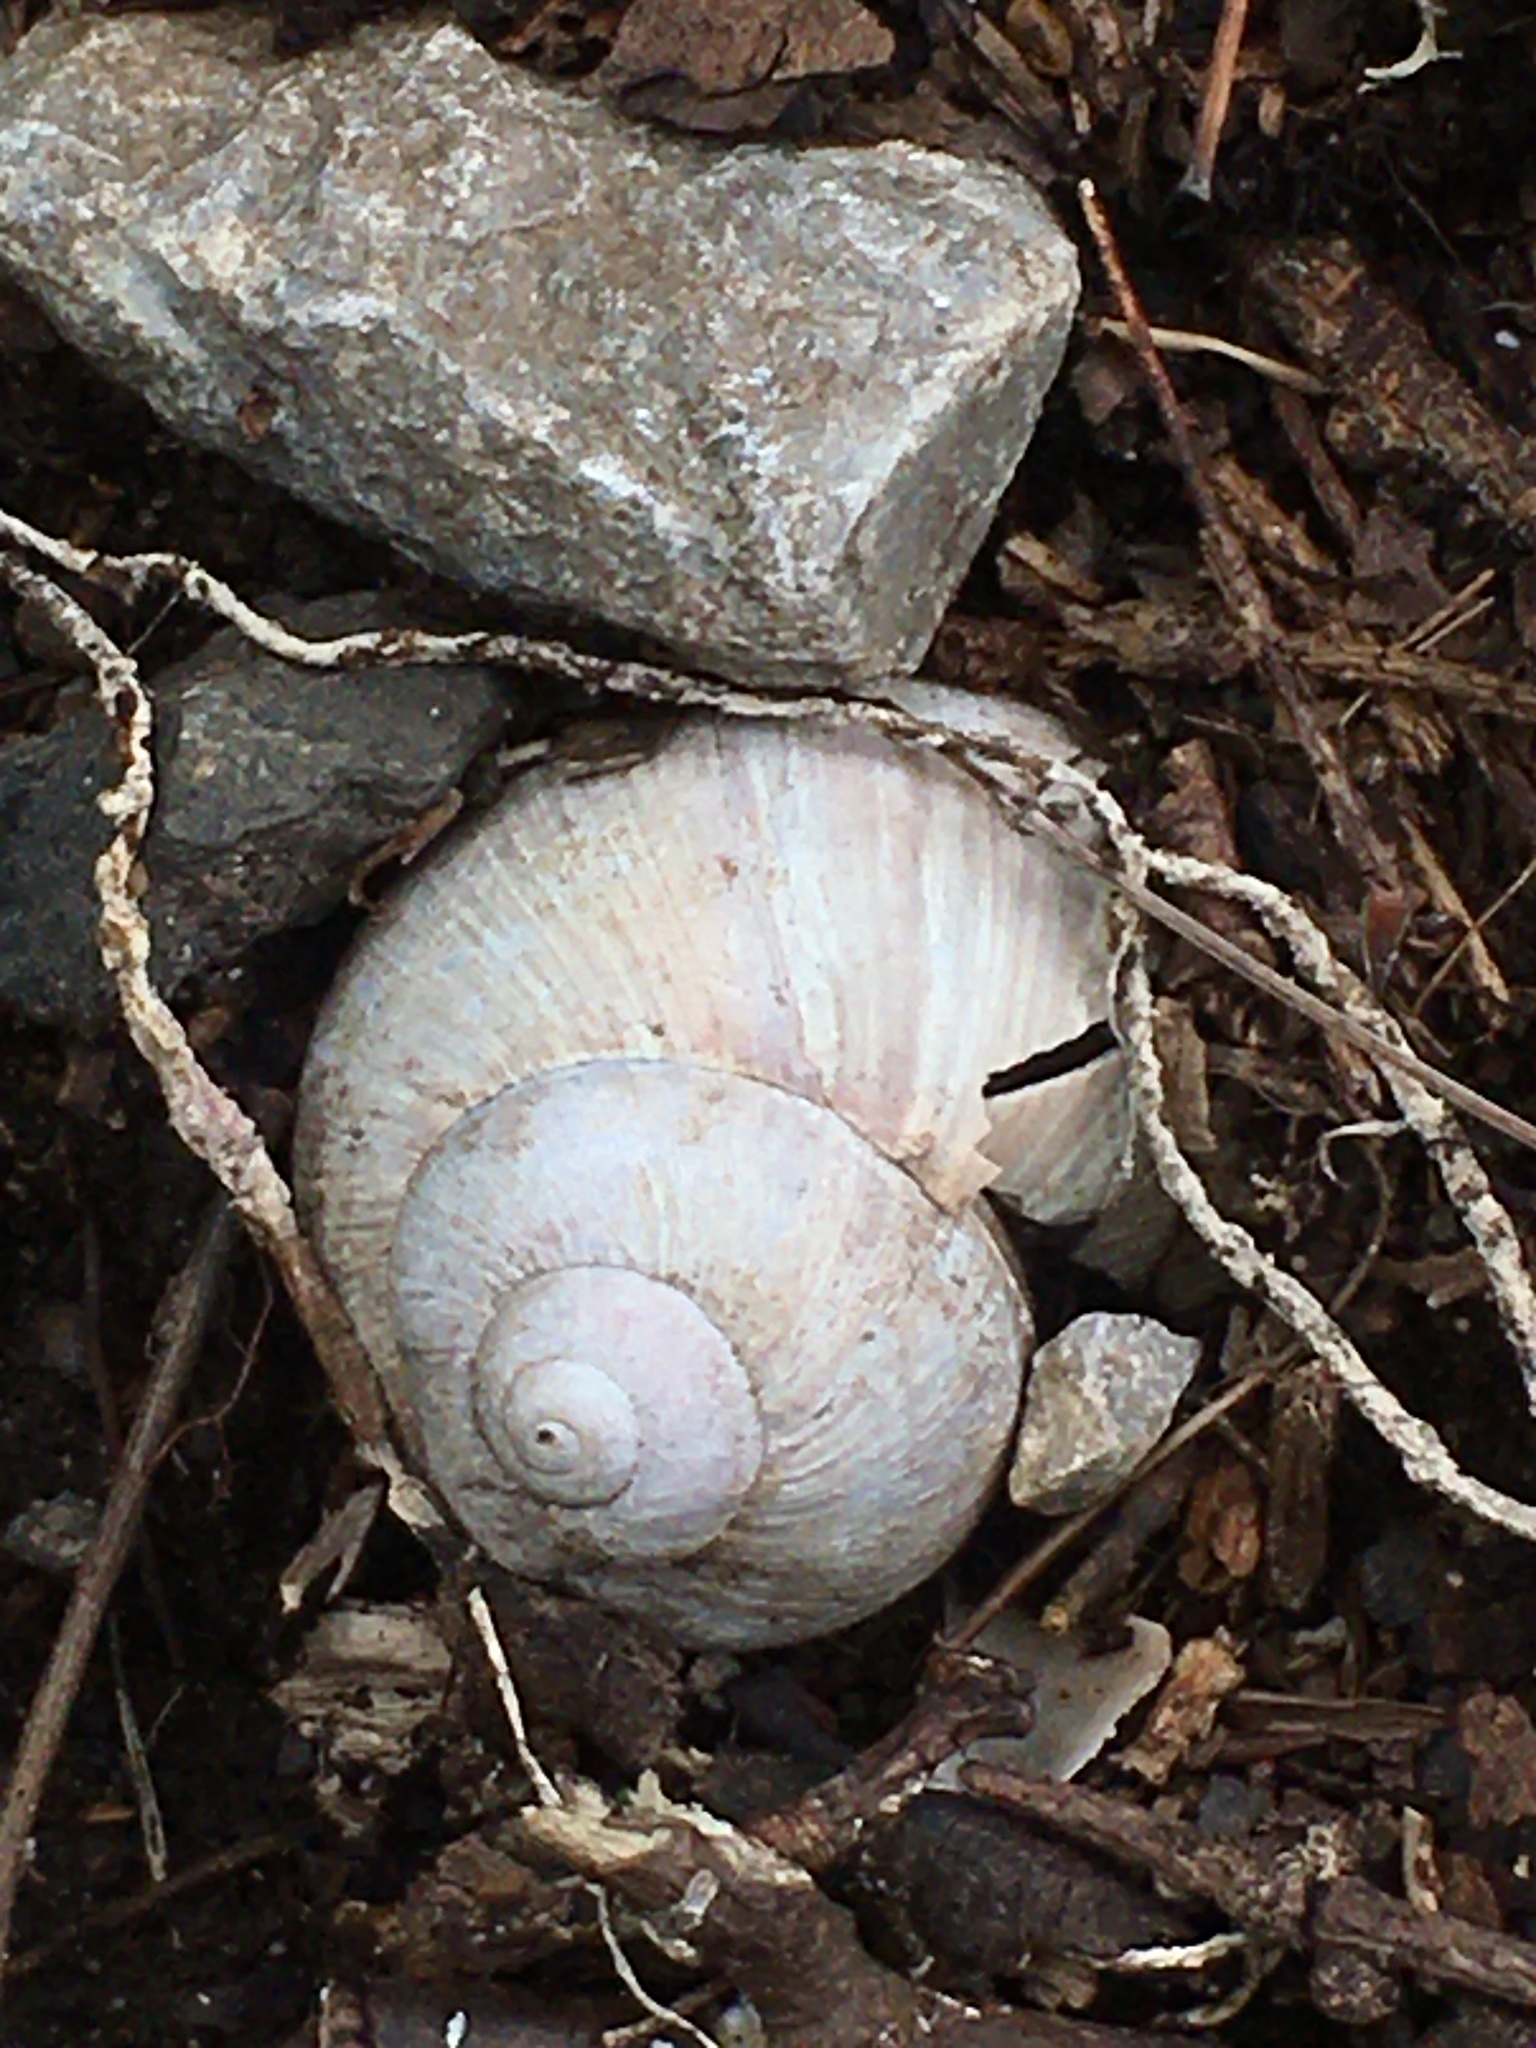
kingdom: Animalia
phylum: Mollusca
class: Gastropoda
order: Stylommatophora
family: Helicidae
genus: Helix
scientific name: Helix pomatia
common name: Roman snail
